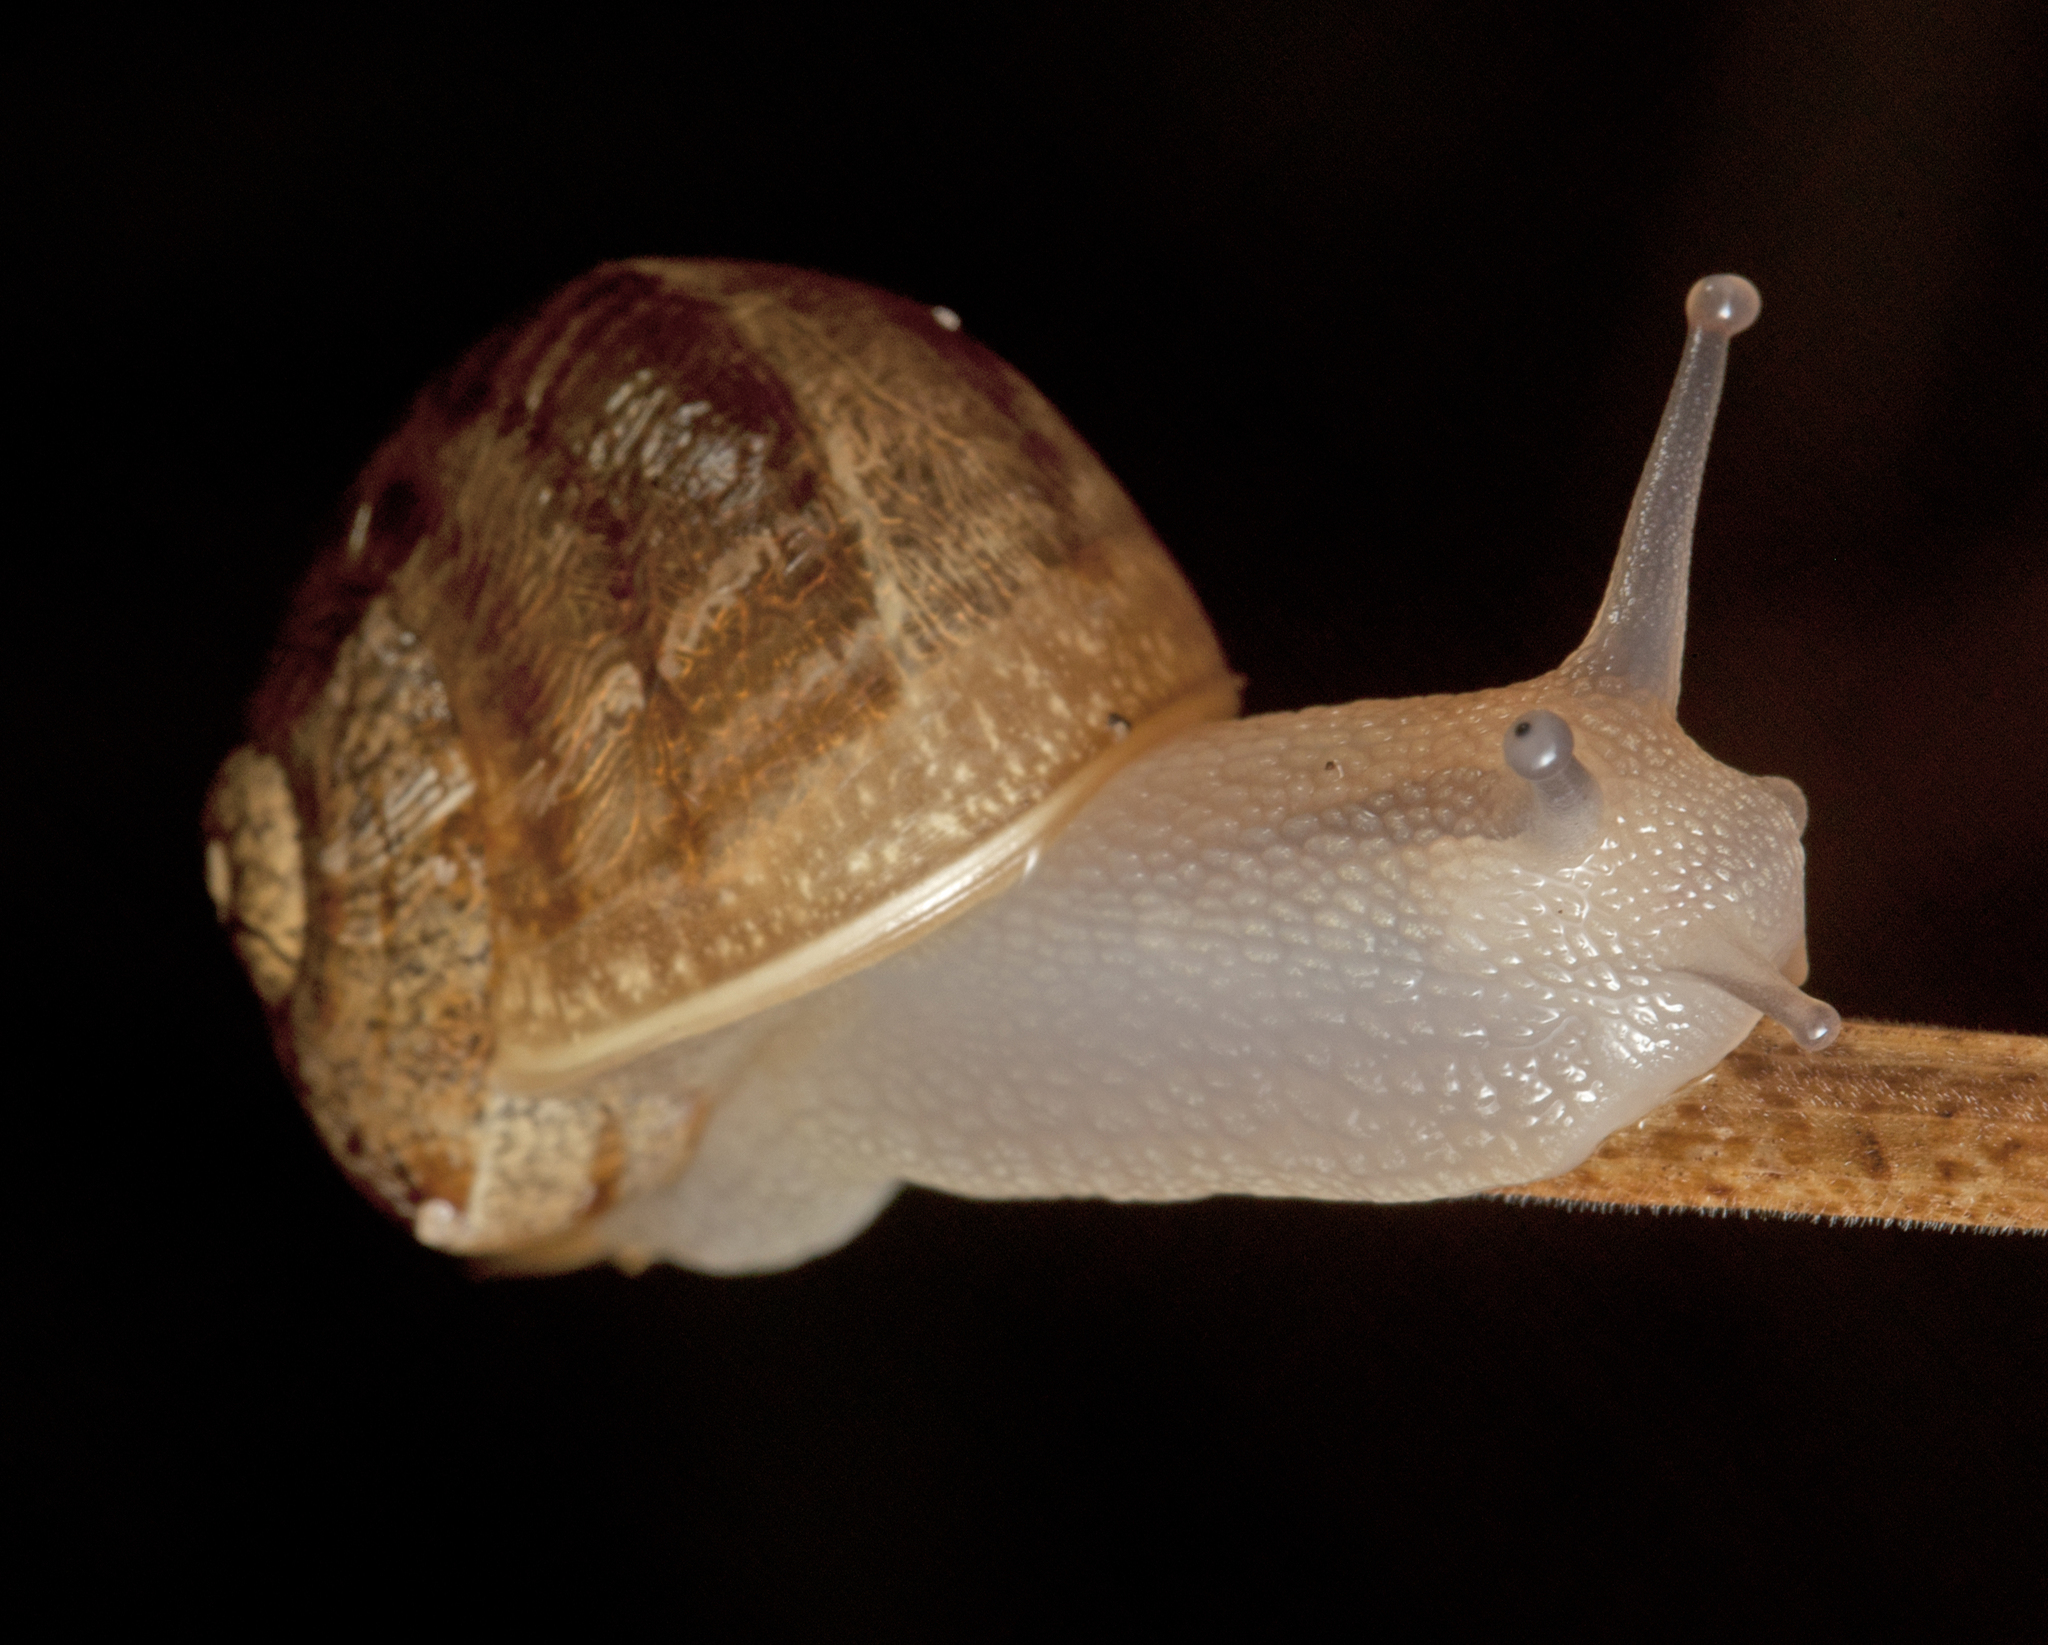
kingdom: Animalia
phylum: Mollusca
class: Gastropoda
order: Stylommatophora
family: Helicidae
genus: Cornu
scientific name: Cornu aspersum
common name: Brown garden snail
